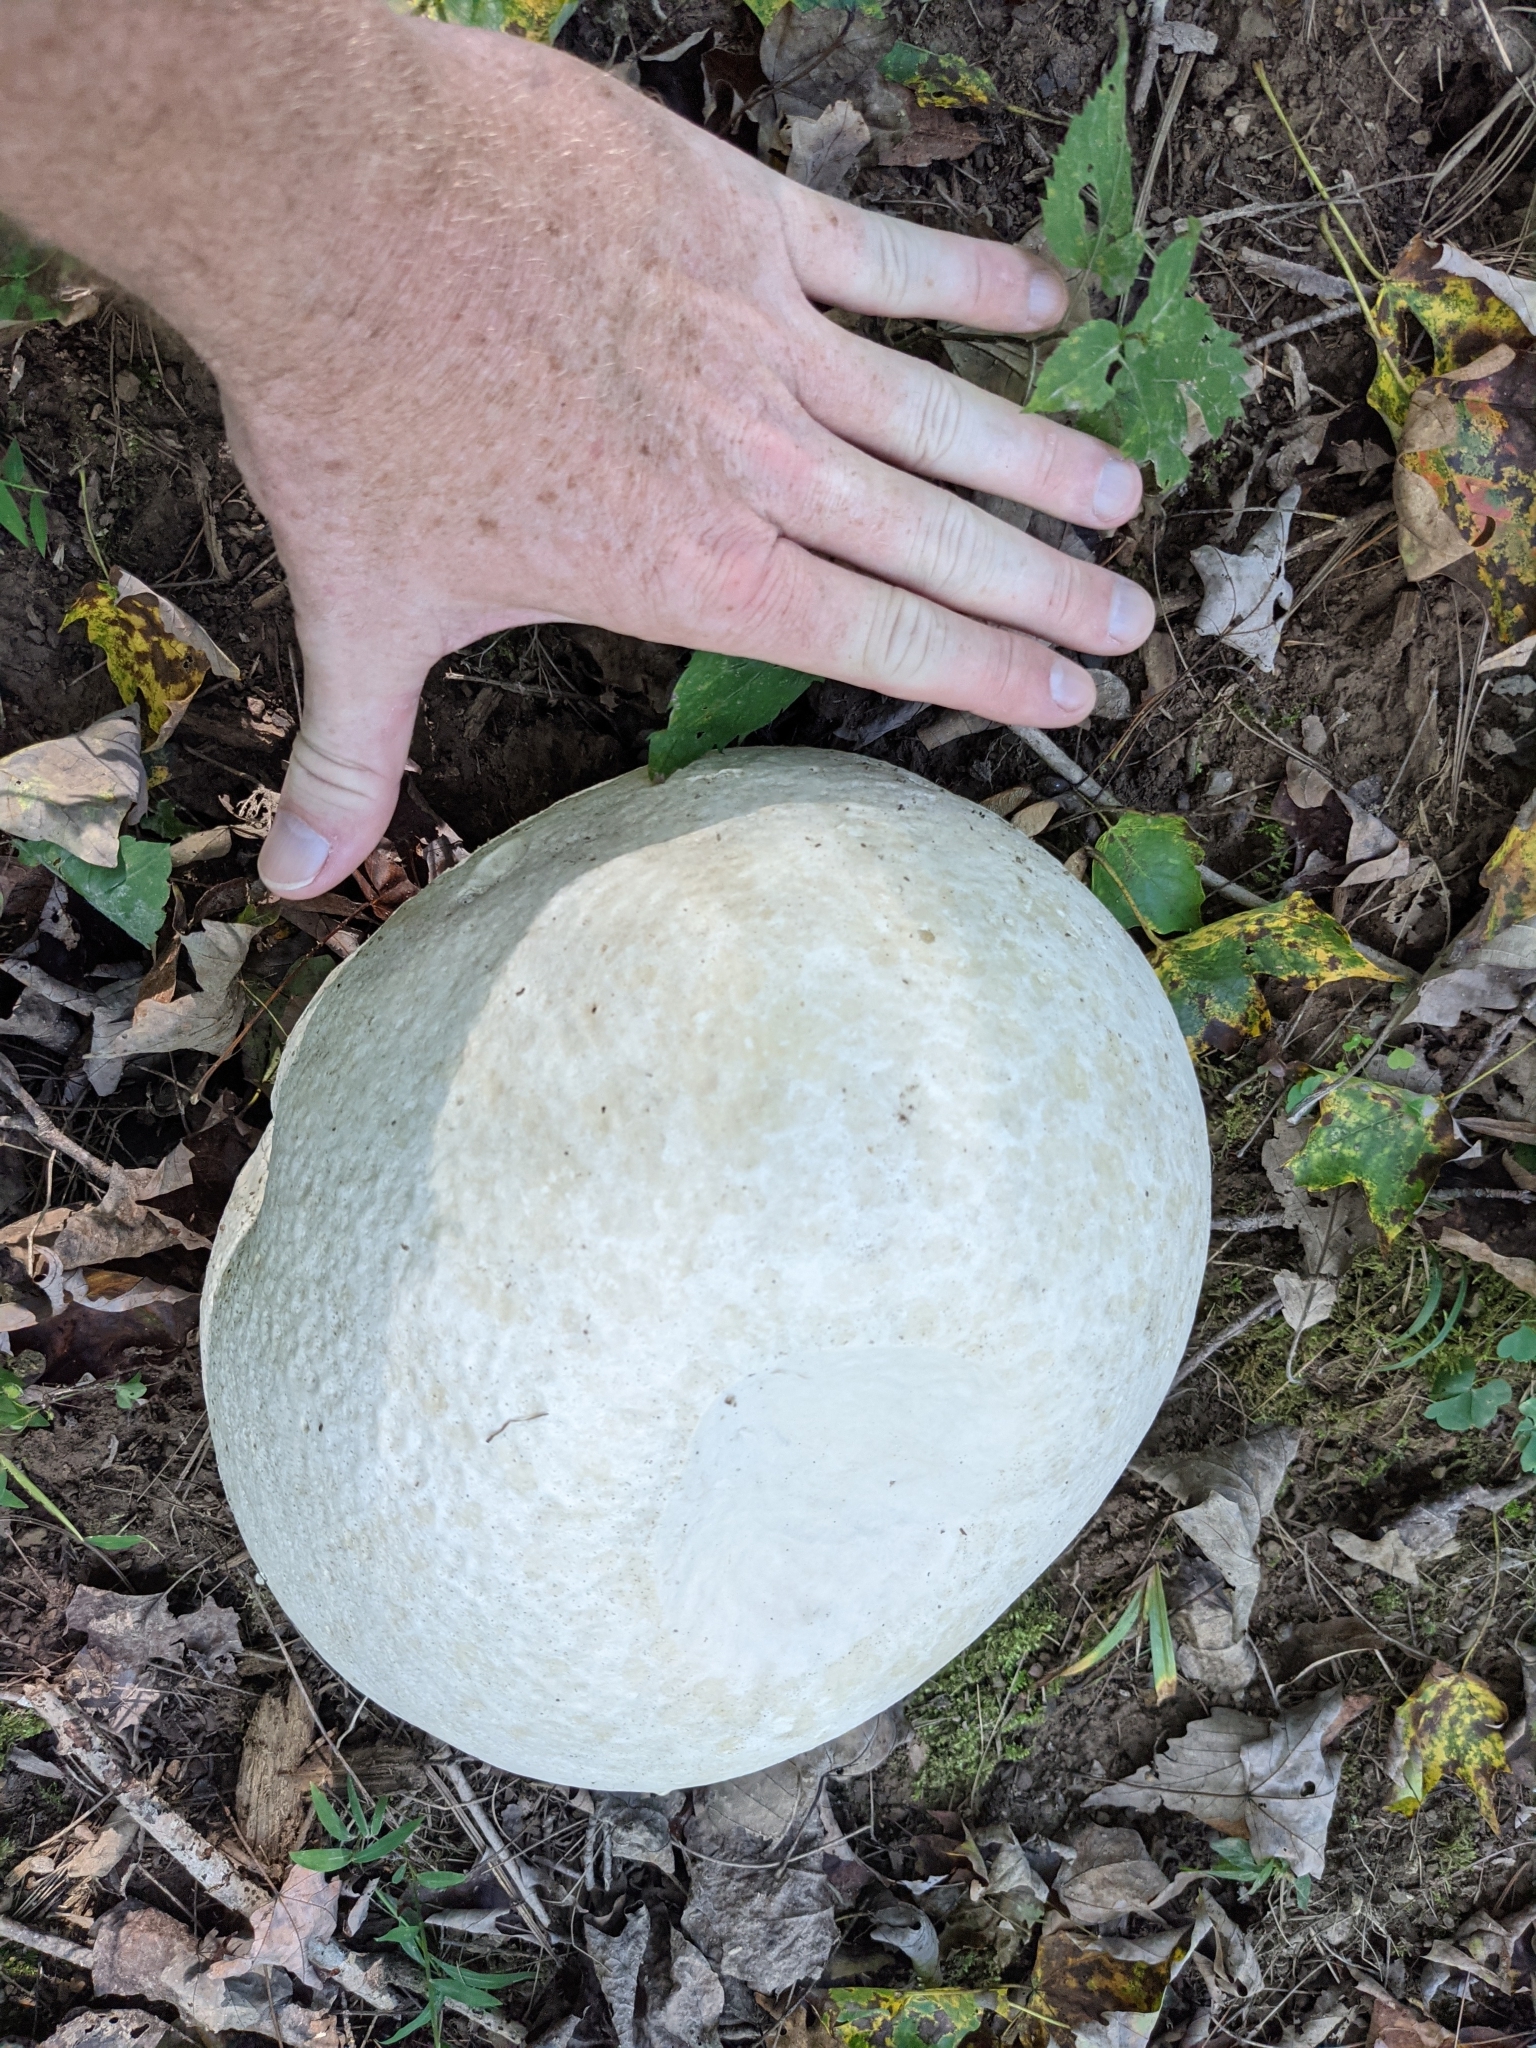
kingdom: Fungi
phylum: Basidiomycota
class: Agaricomycetes
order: Agaricales
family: Lycoperdaceae
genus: Calvatia
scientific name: Calvatia gigantea
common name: Giant puffball
